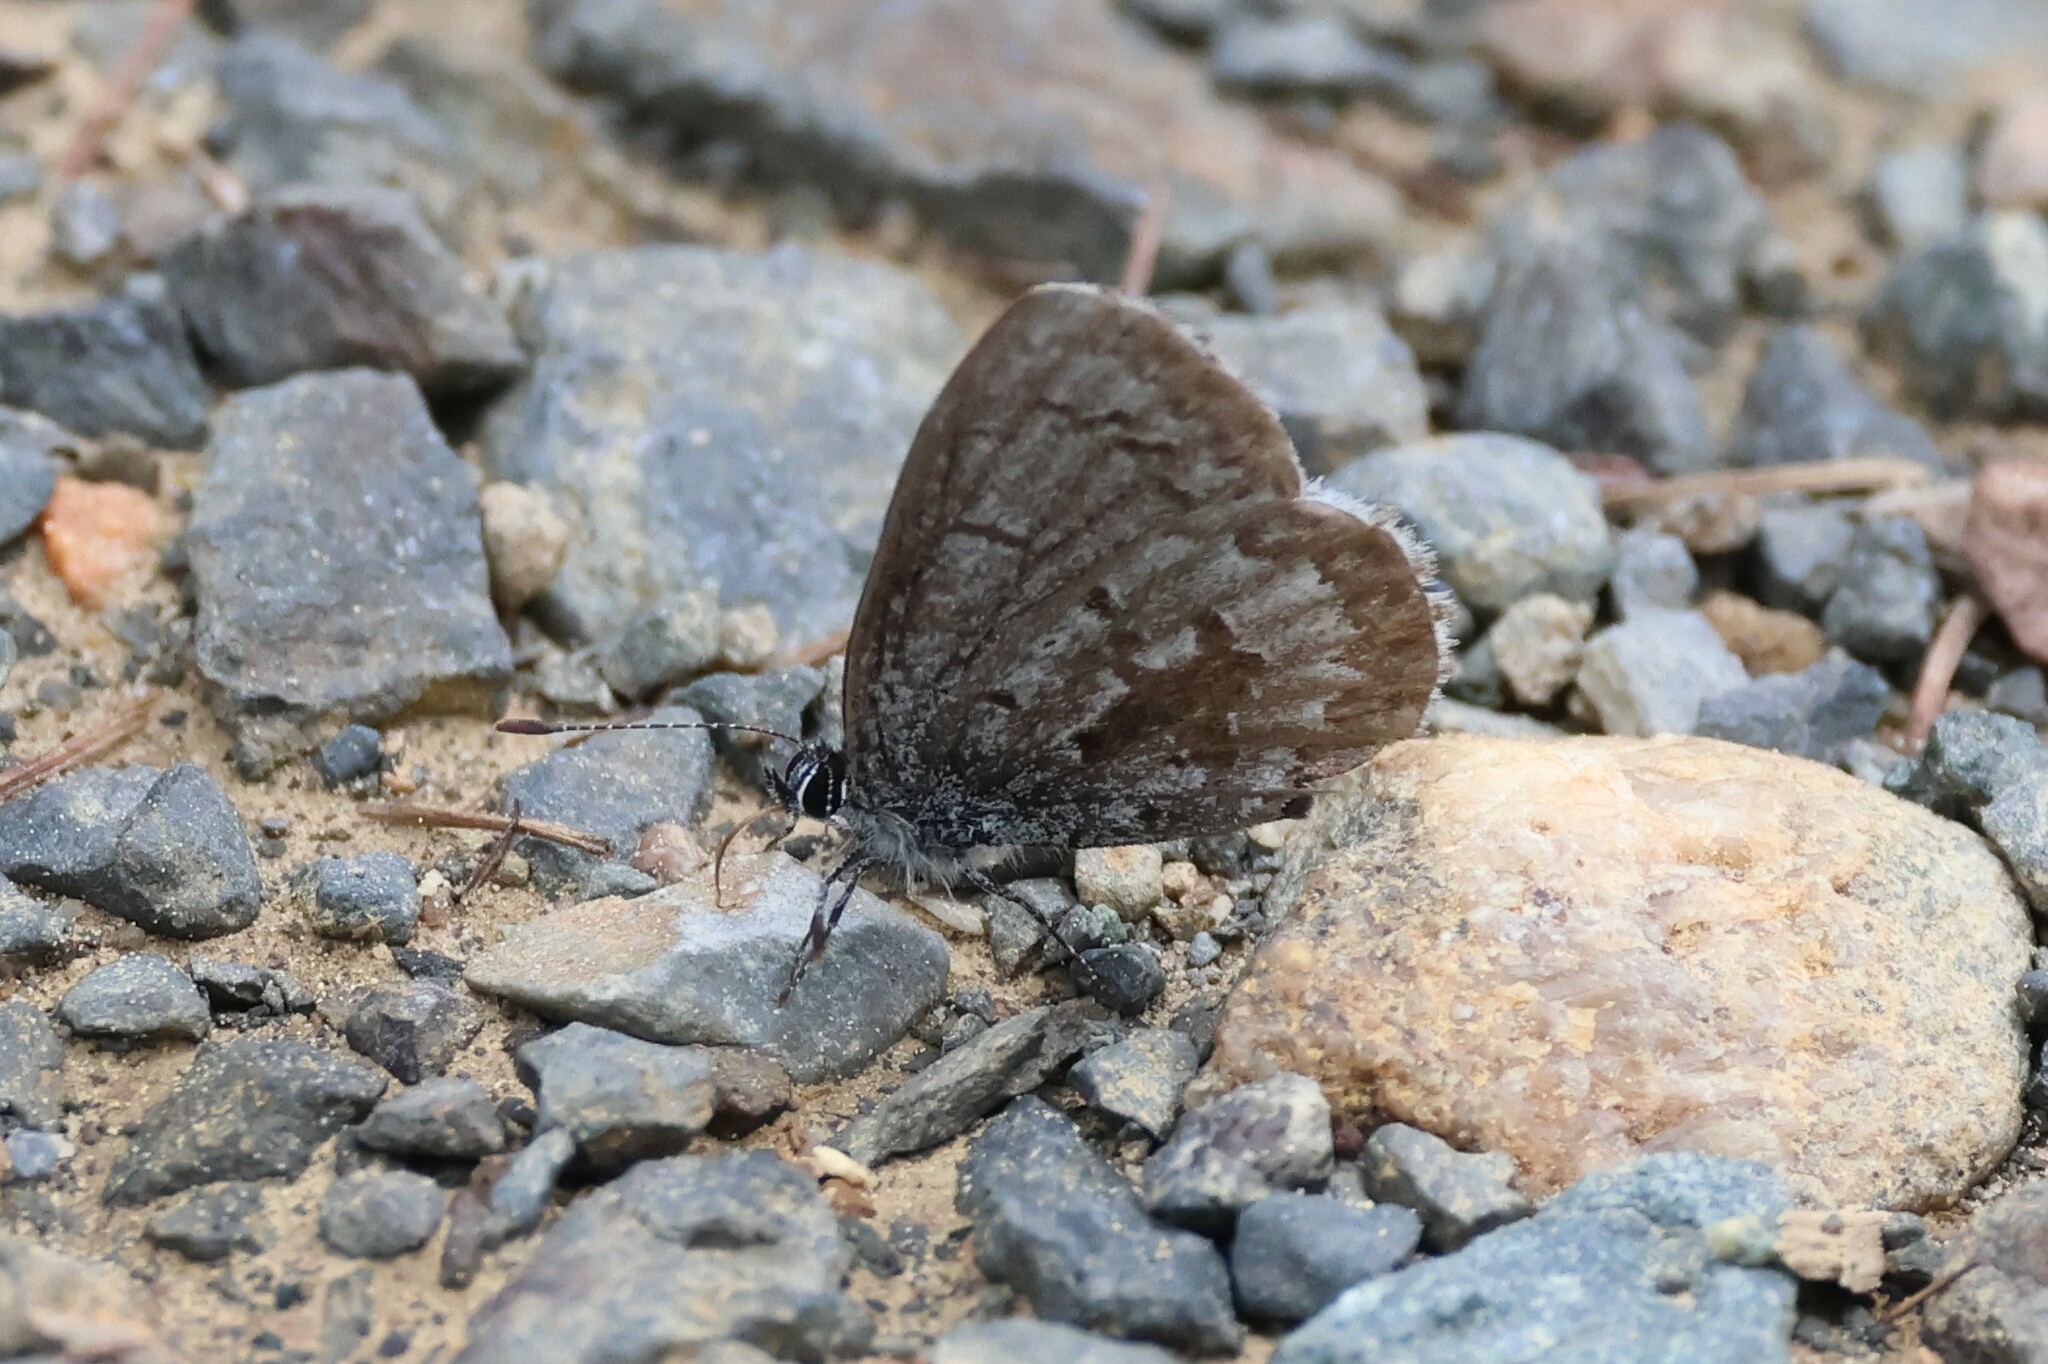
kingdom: Animalia
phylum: Arthropoda
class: Insecta
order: Lepidoptera
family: Lycaenidae
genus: Celastrina
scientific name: Celastrina lucia
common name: Lucia azure
